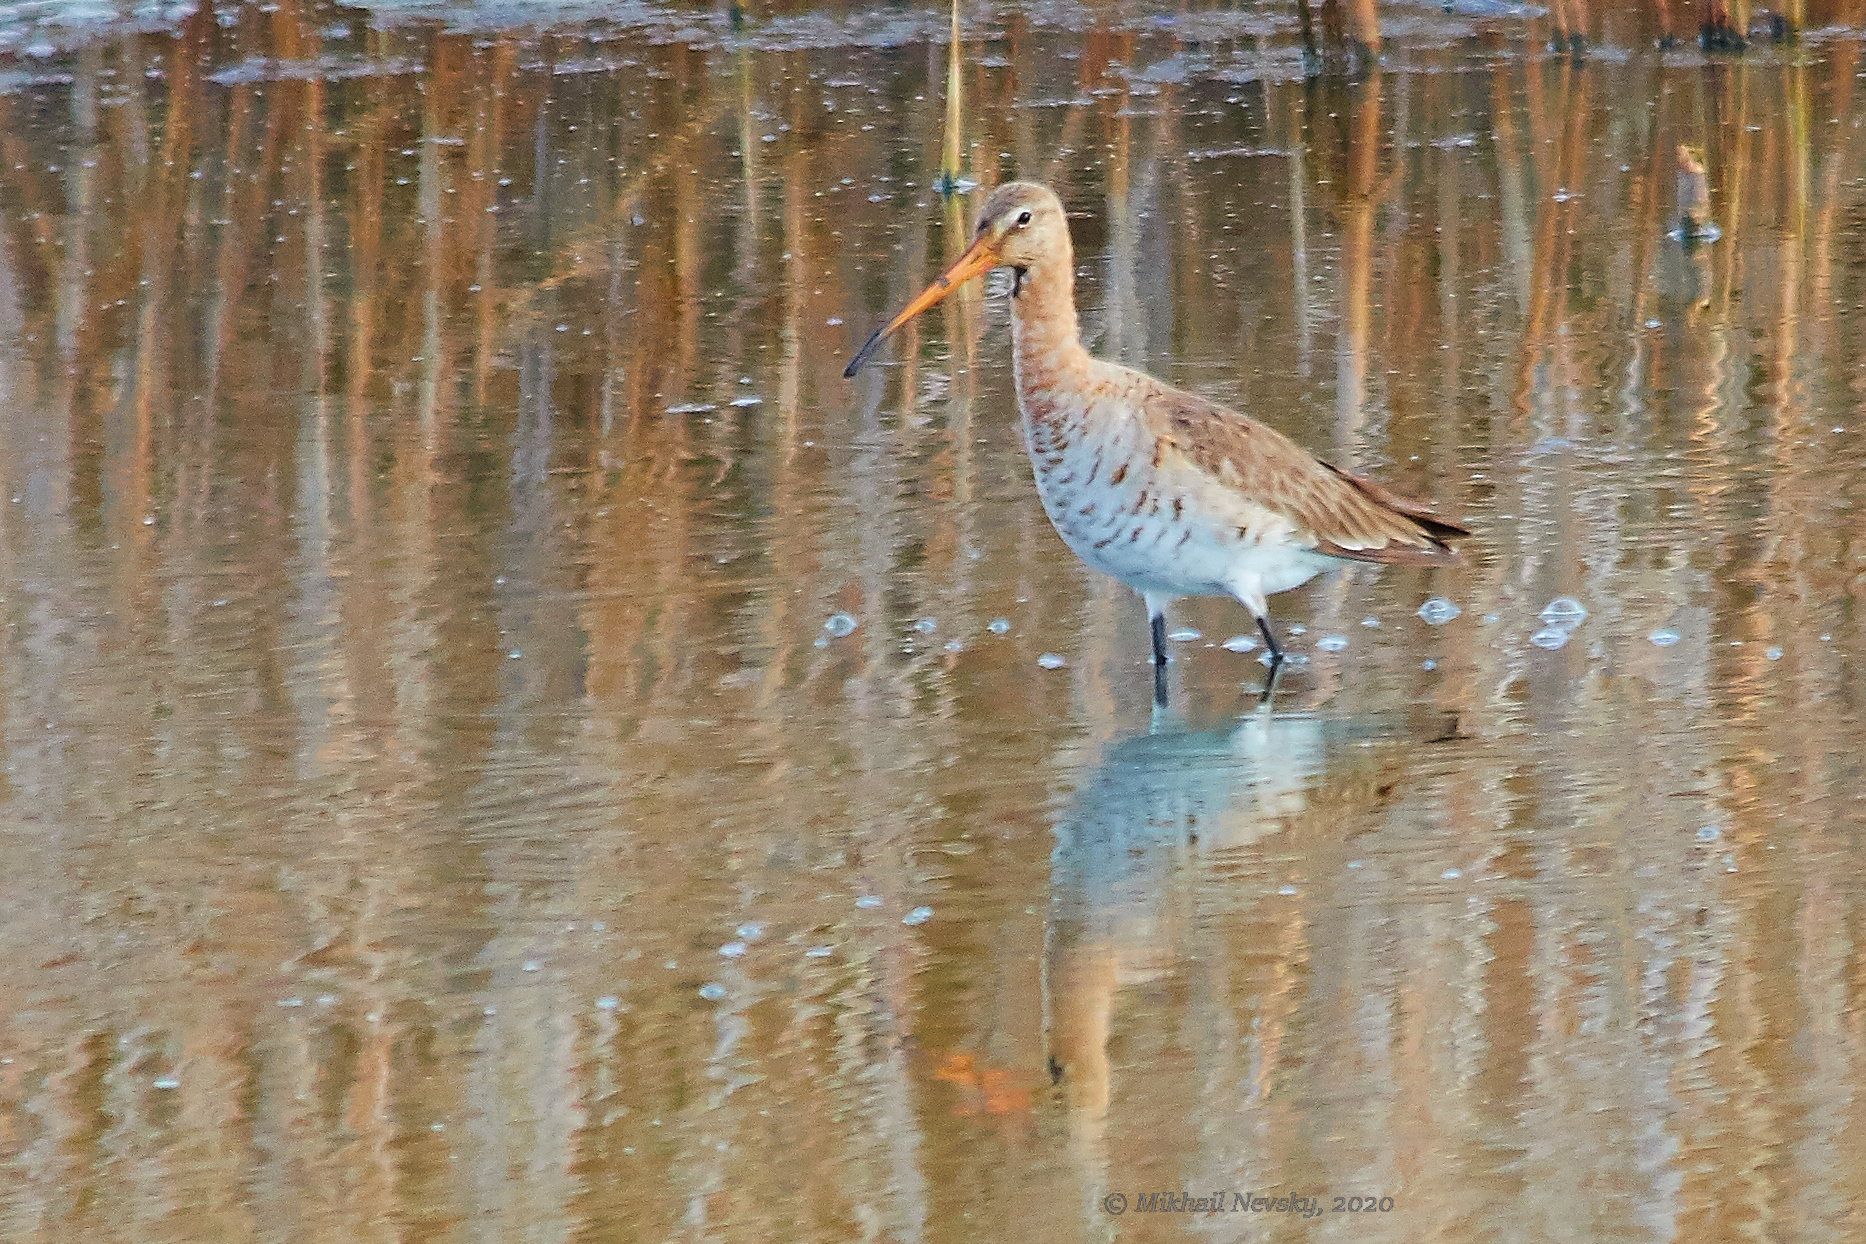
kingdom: Animalia
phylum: Chordata
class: Aves
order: Charadriiformes
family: Scolopacidae
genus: Limosa
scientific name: Limosa limosa
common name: Black-tailed godwit
